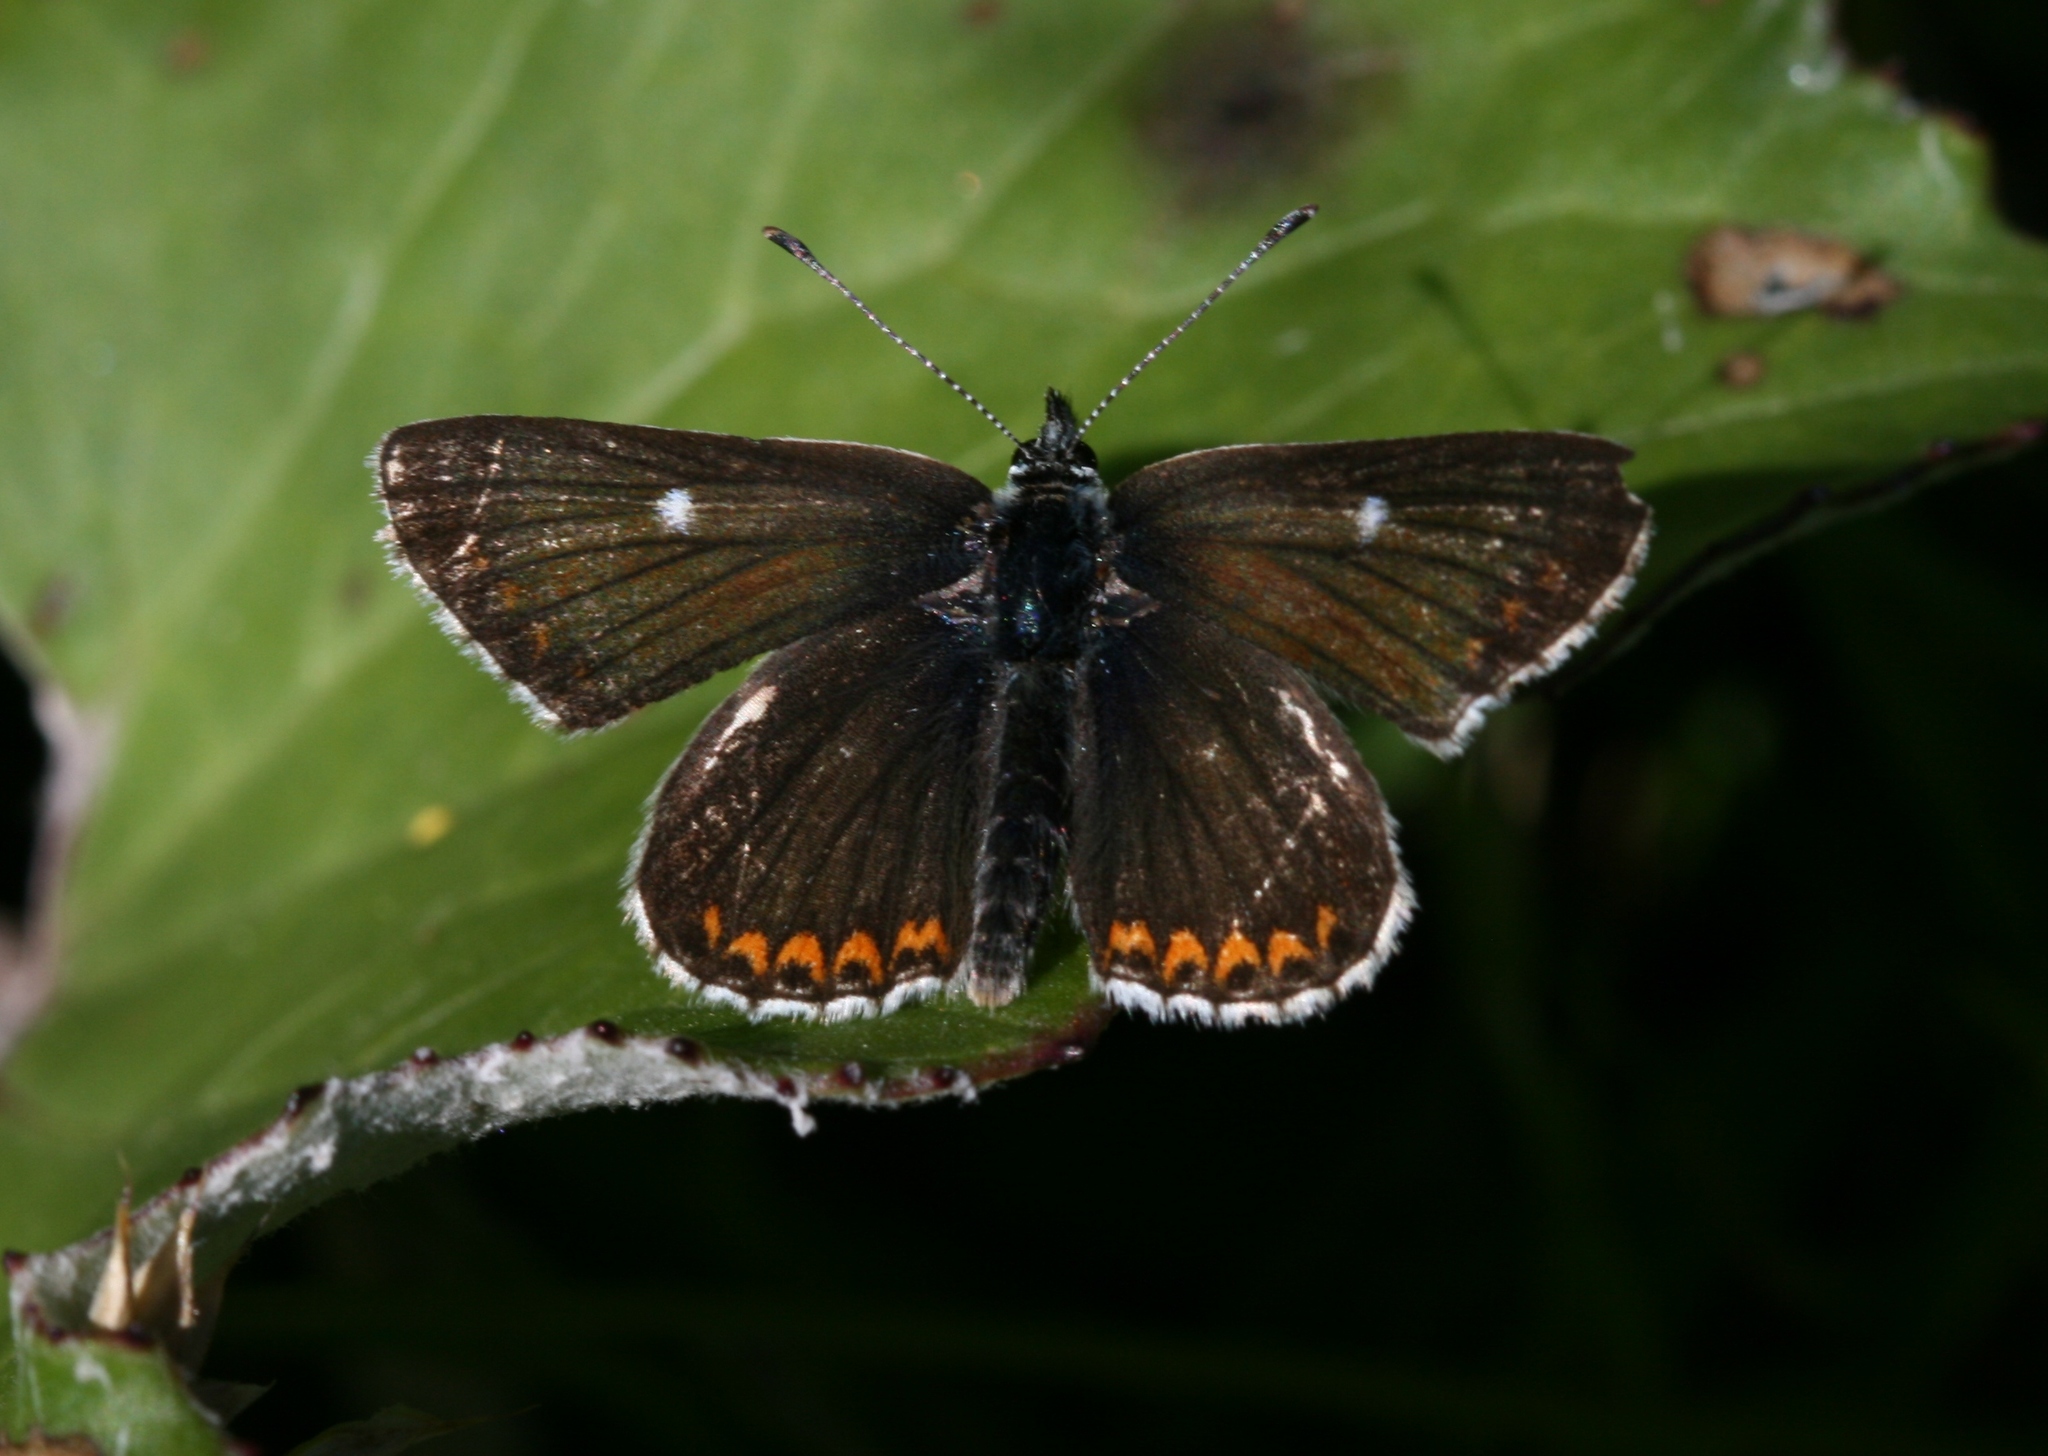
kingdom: Animalia
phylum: Arthropoda
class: Insecta
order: Lepidoptera
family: Lycaenidae
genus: Aricia
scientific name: Aricia artaxerxes
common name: Northern brown argus
